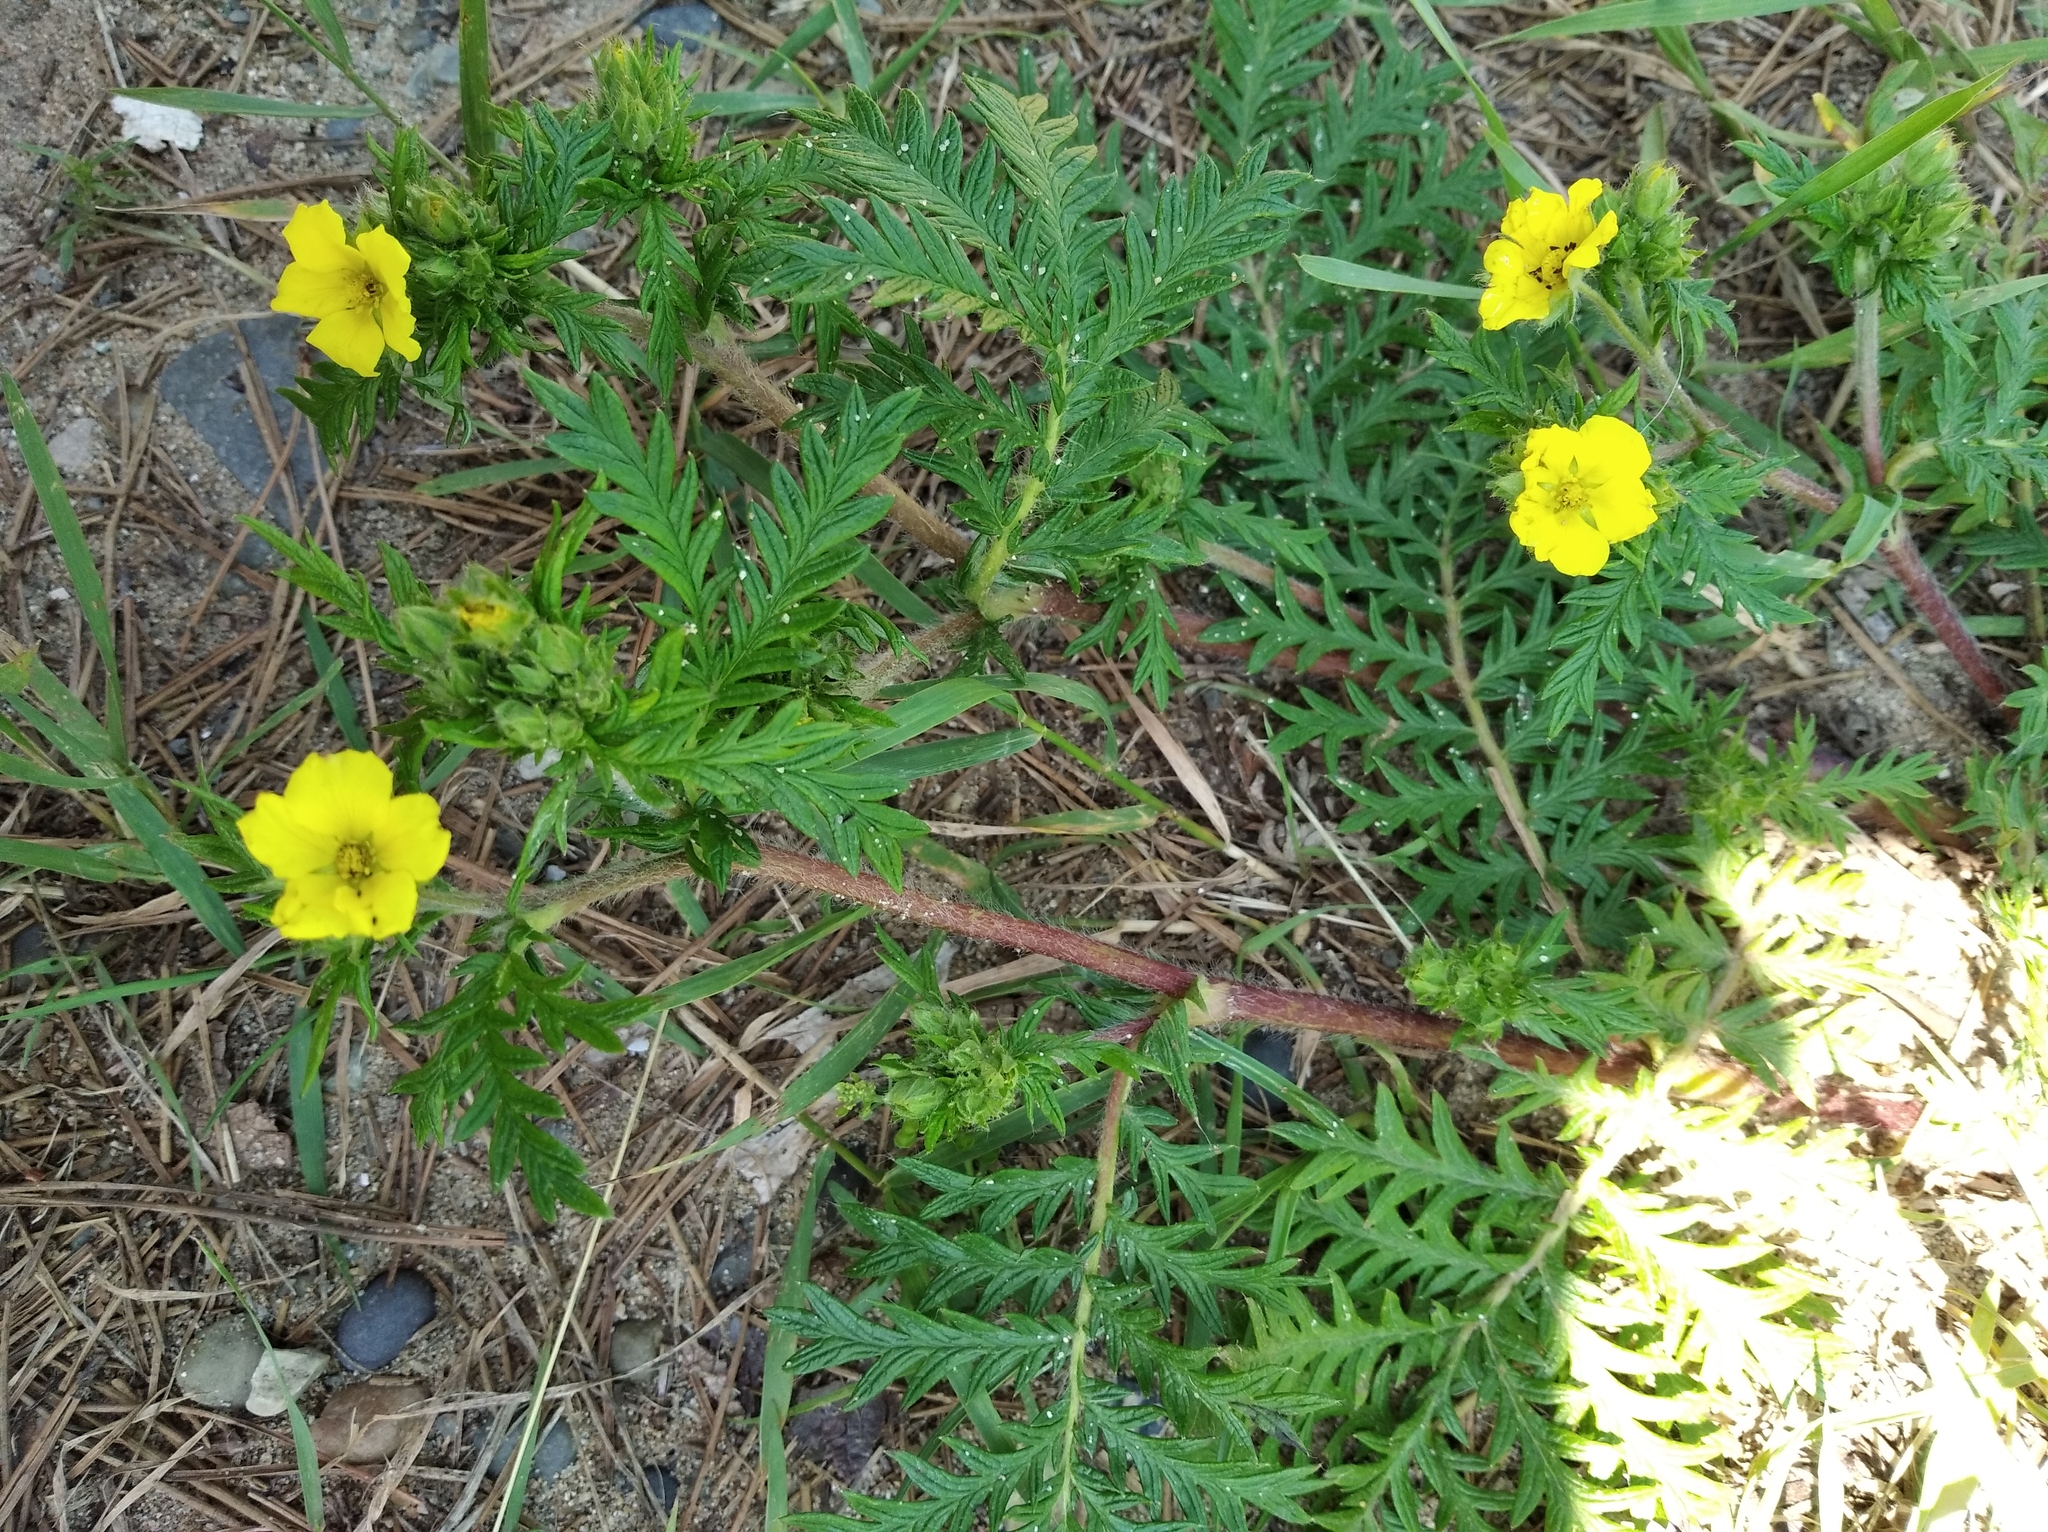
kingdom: Plantae
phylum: Tracheophyta
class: Magnoliopsida
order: Rosales
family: Rosaceae
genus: Potentilla
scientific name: Potentilla chinensis
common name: Chinese cinquefoil
